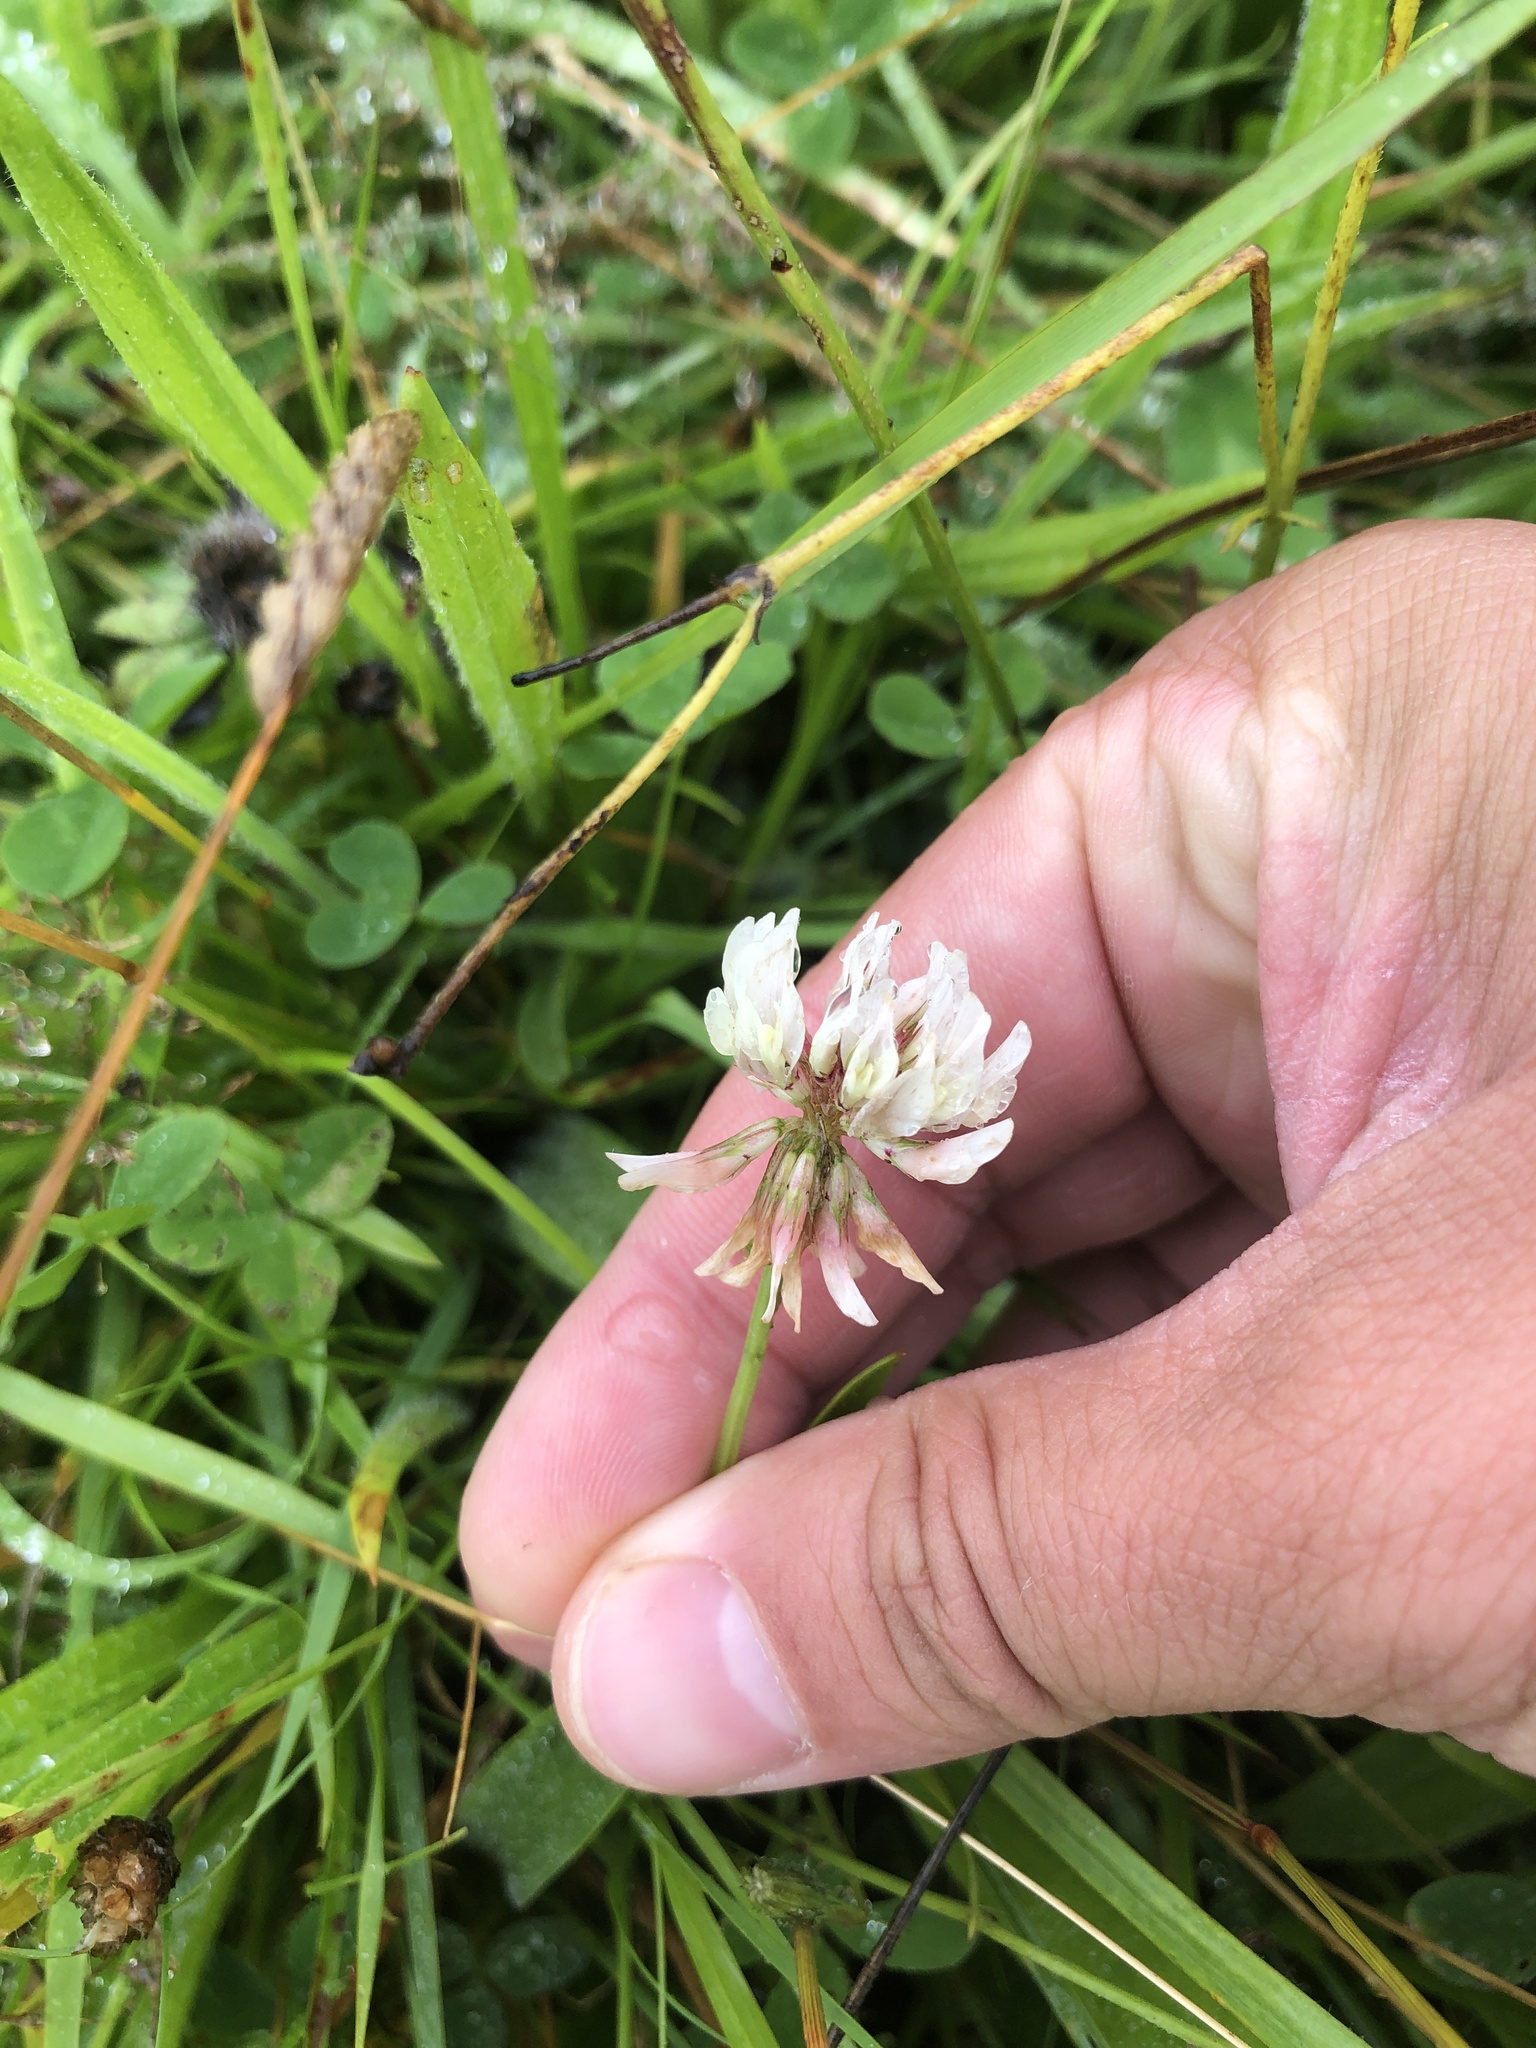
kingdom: Plantae
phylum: Tracheophyta
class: Magnoliopsida
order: Fabales
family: Fabaceae
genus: Trifolium
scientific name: Trifolium repens
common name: White clover
